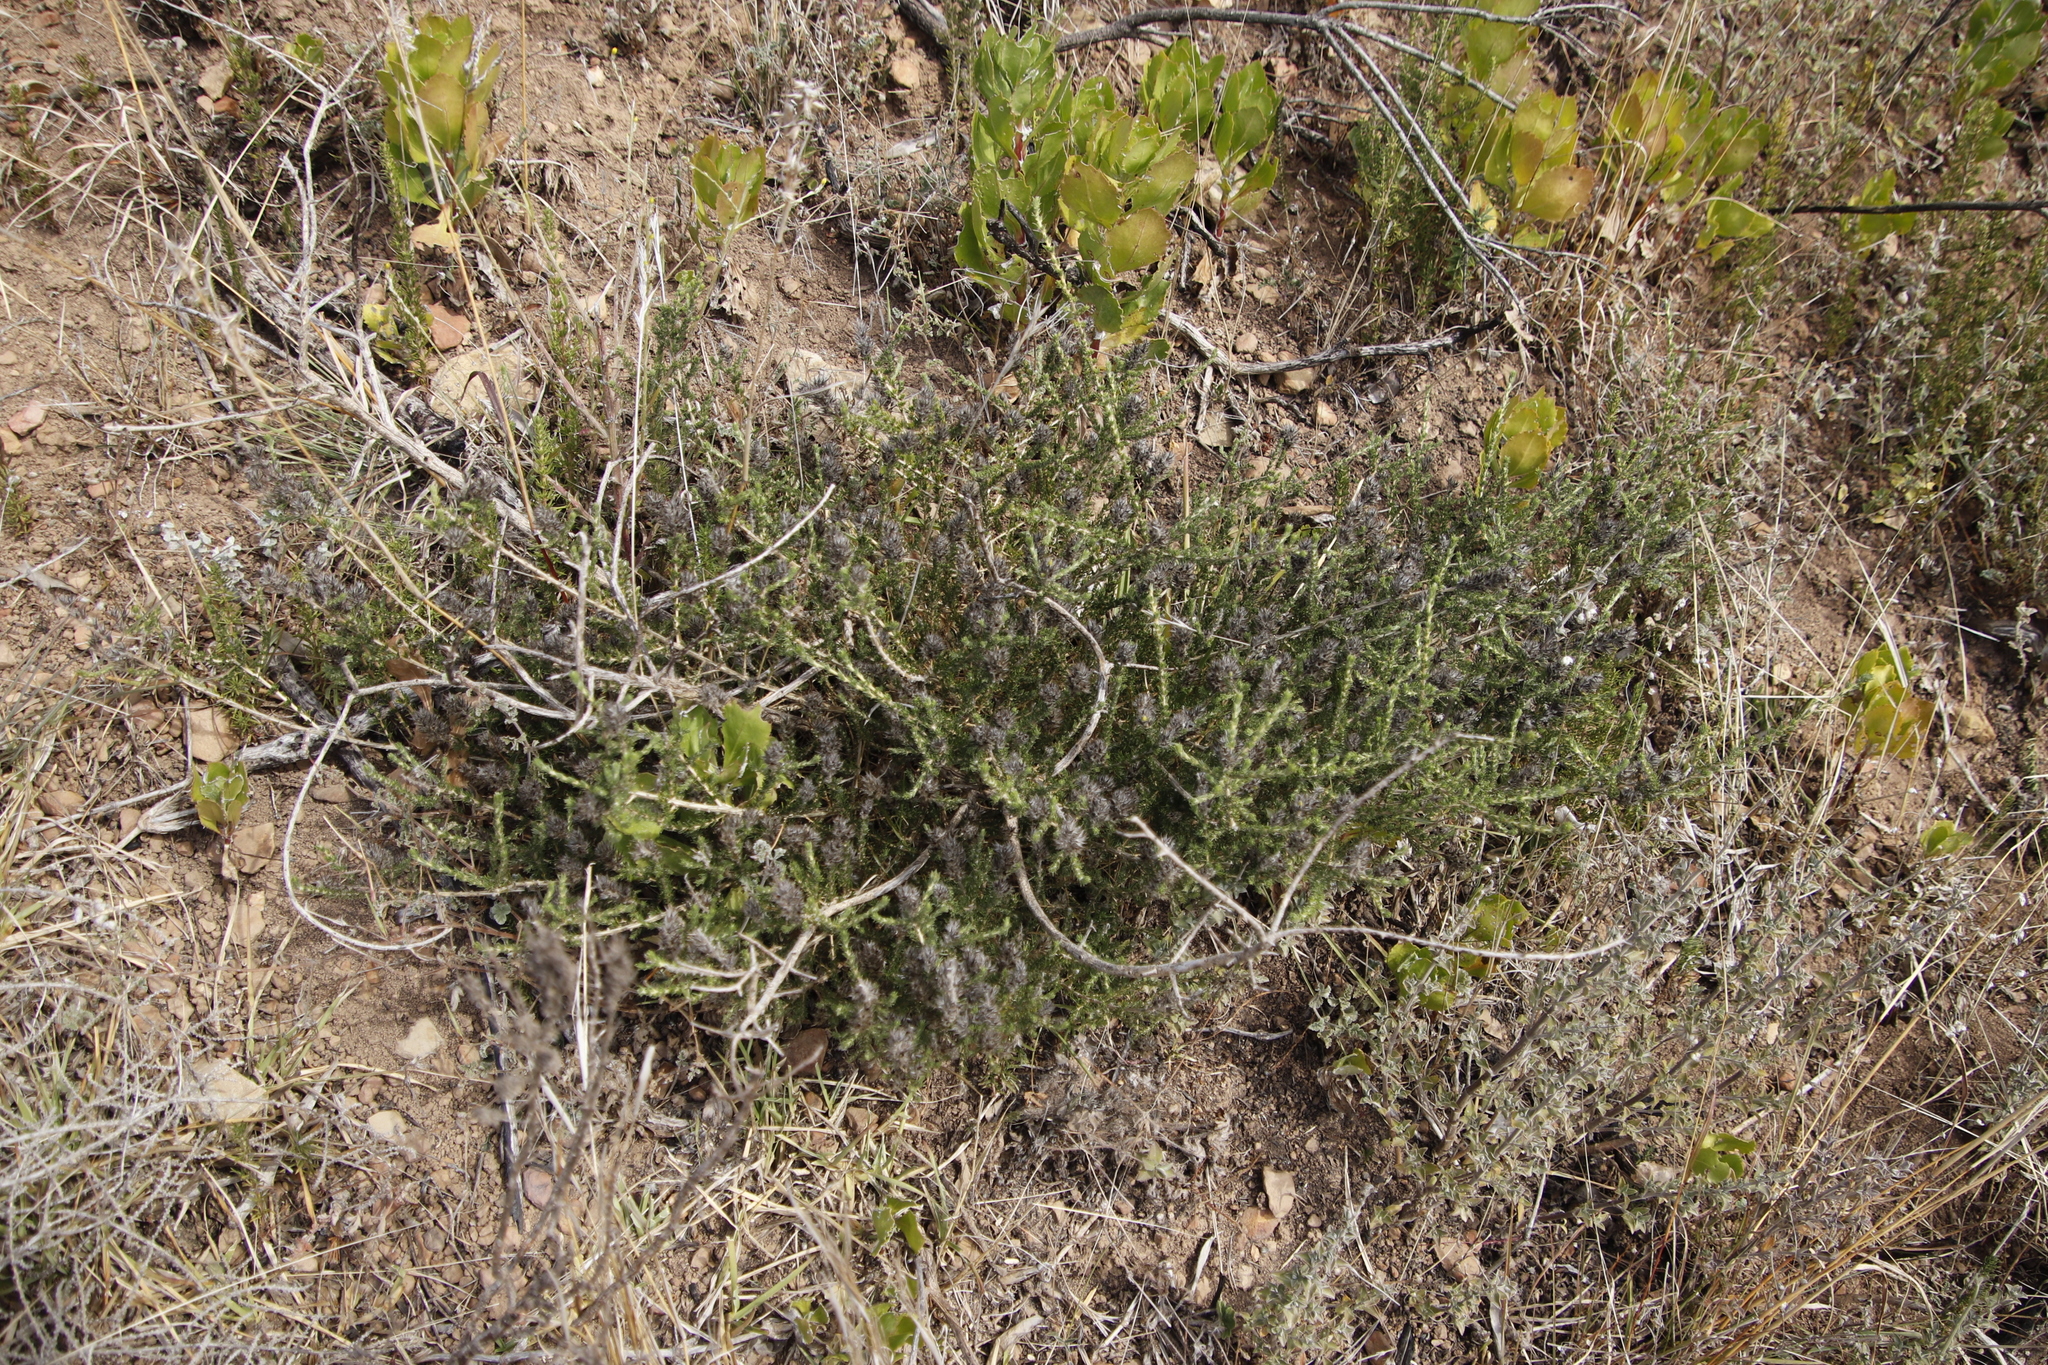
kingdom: Plantae
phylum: Tracheophyta
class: Magnoliopsida
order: Fabales
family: Fabaceae
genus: Aspalathus
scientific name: Aspalathus cephalotes
